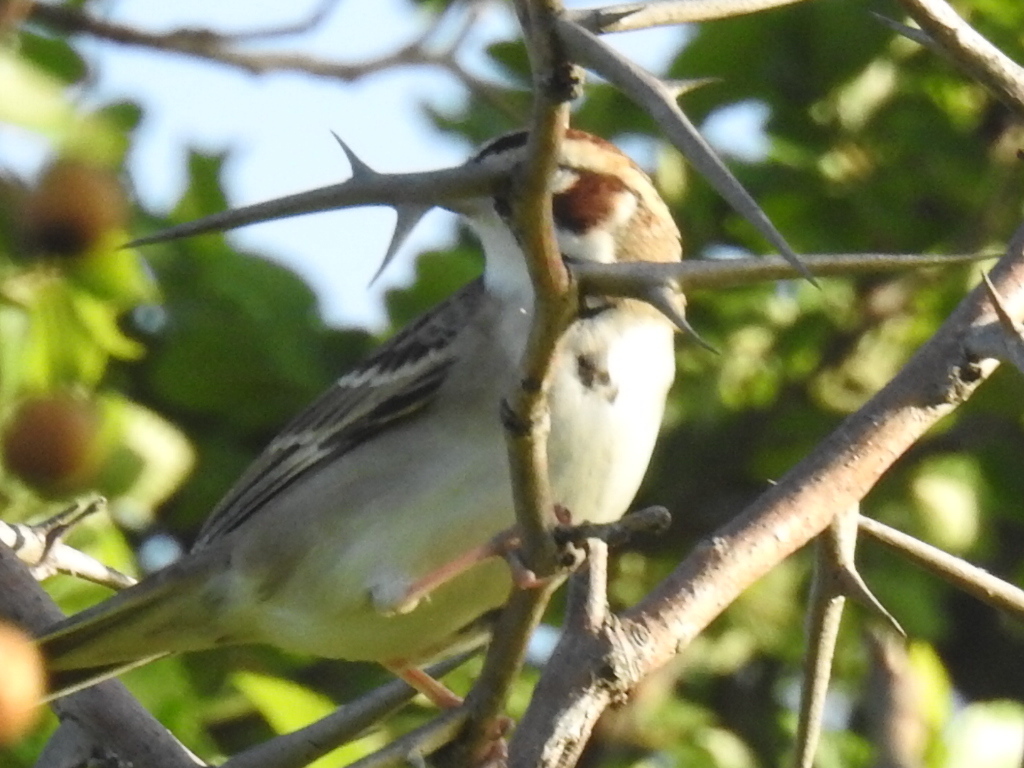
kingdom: Animalia
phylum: Chordata
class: Aves
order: Passeriformes
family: Passerellidae
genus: Chondestes
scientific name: Chondestes grammacus
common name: Lark sparrow
